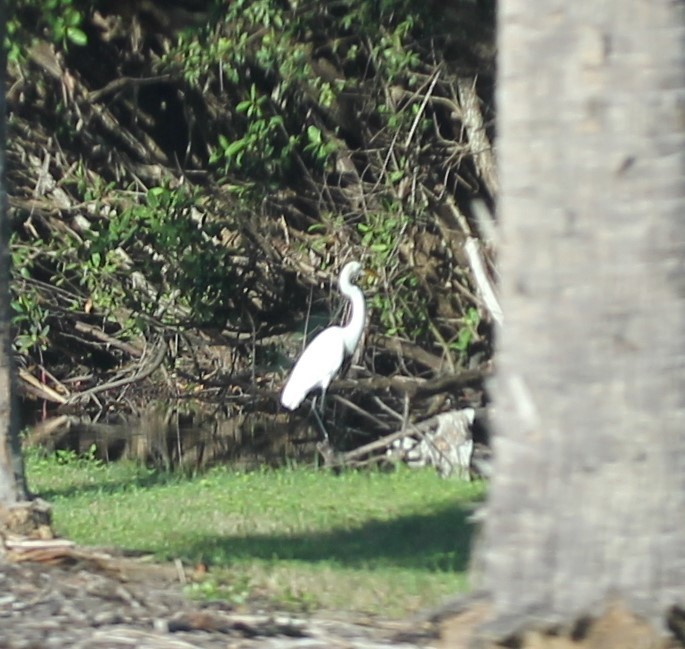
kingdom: Animalia
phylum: Chordata
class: Aves
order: Pelecaniformes
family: Ardeidae
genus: Ardea
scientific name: Ardea alba
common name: Great egret
